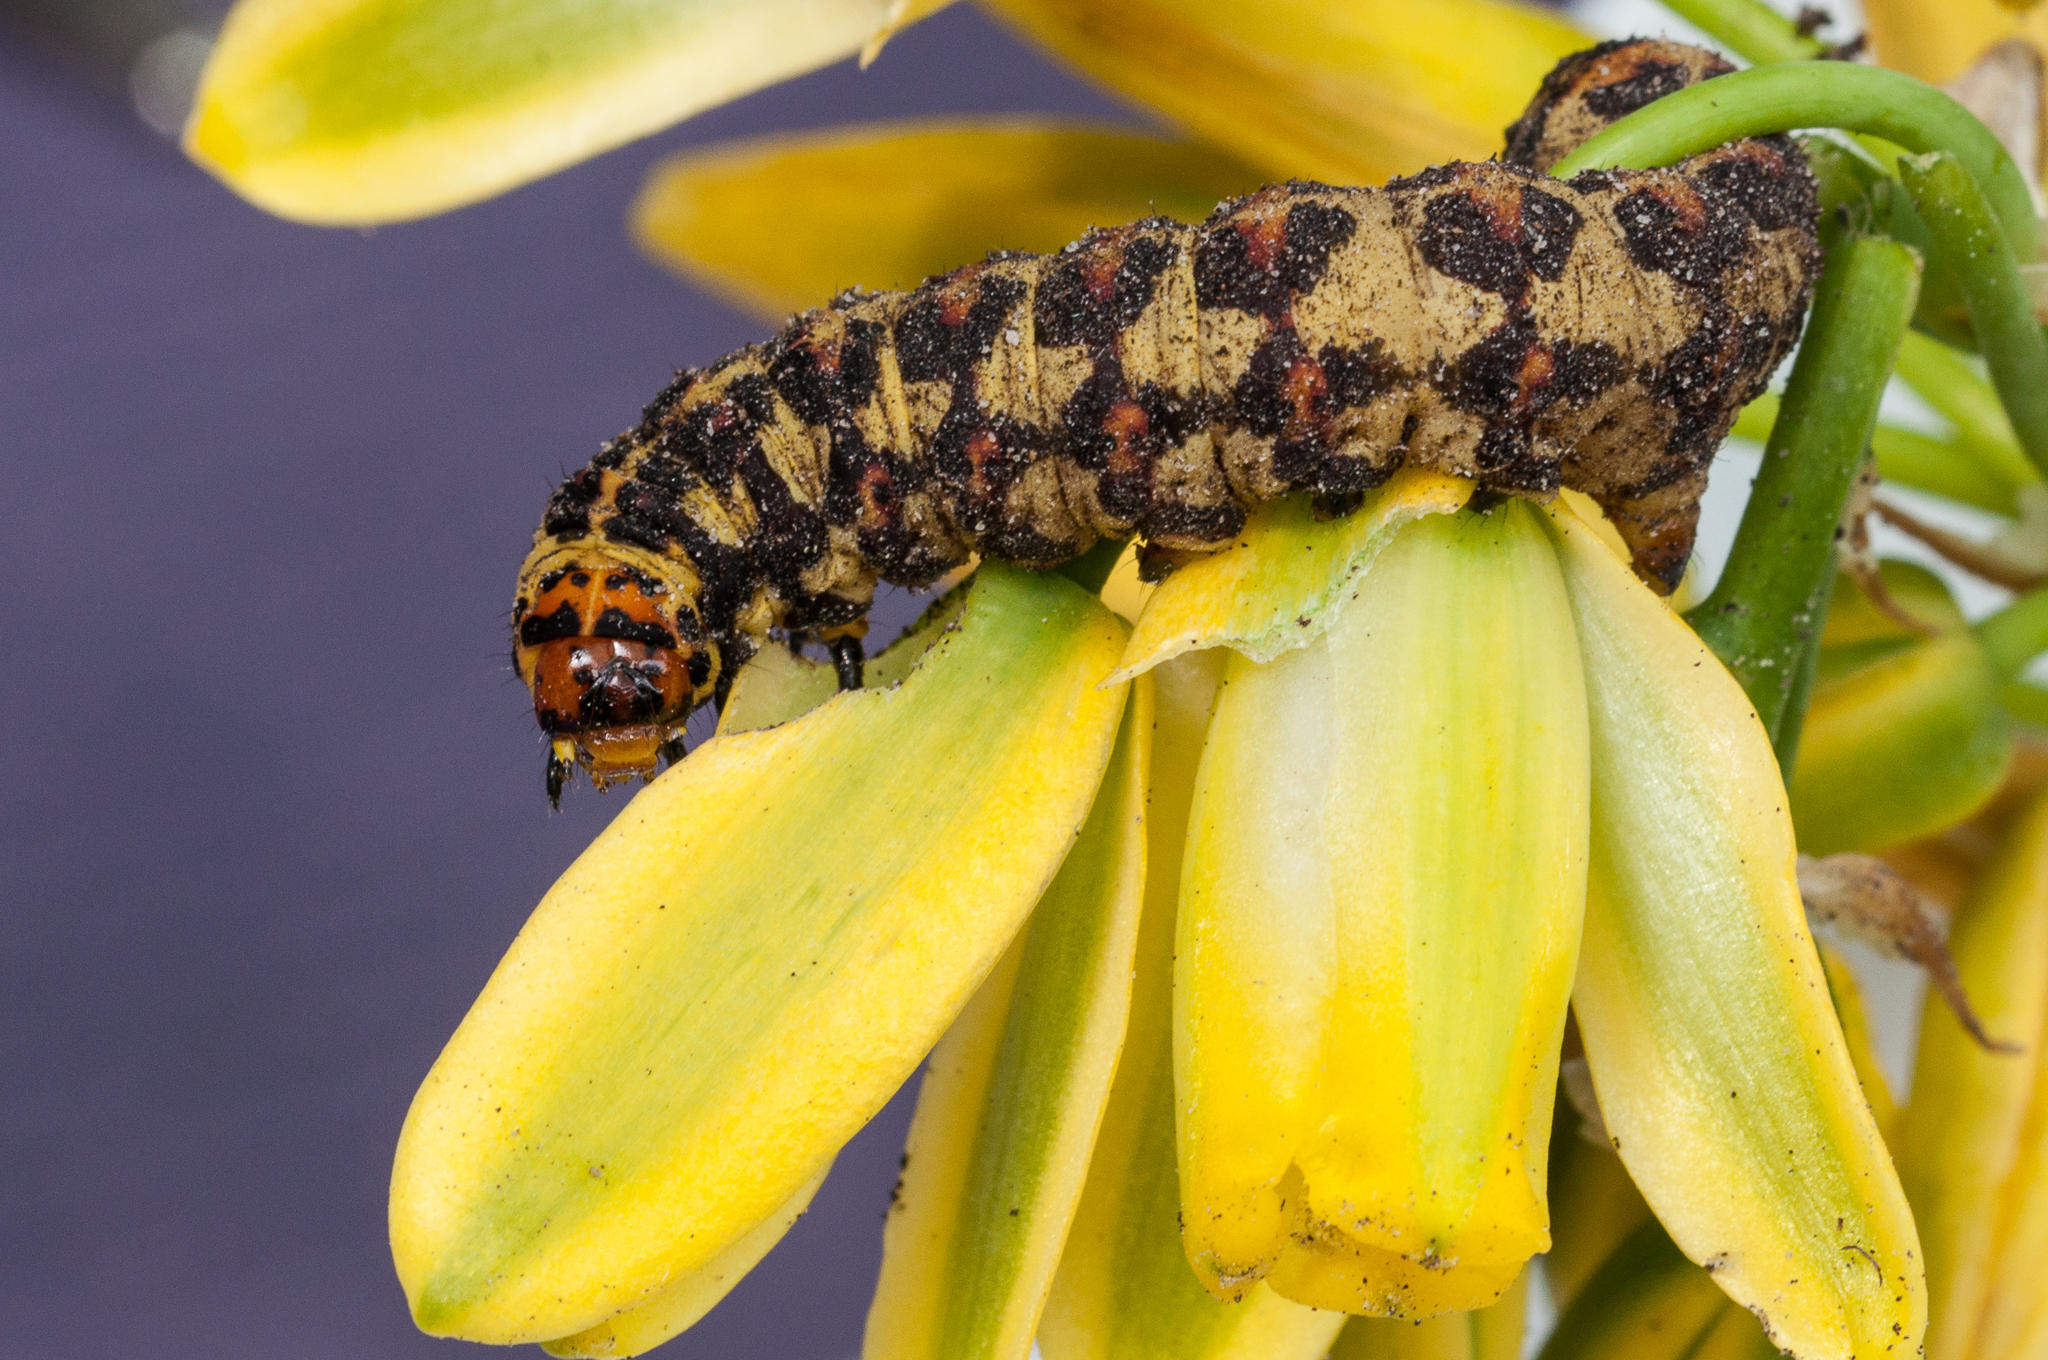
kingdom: Animalia
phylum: Arthropoda
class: Insecta
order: Lepidoptera
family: Noctuidae
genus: Diaphone
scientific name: Diaphone eumela
